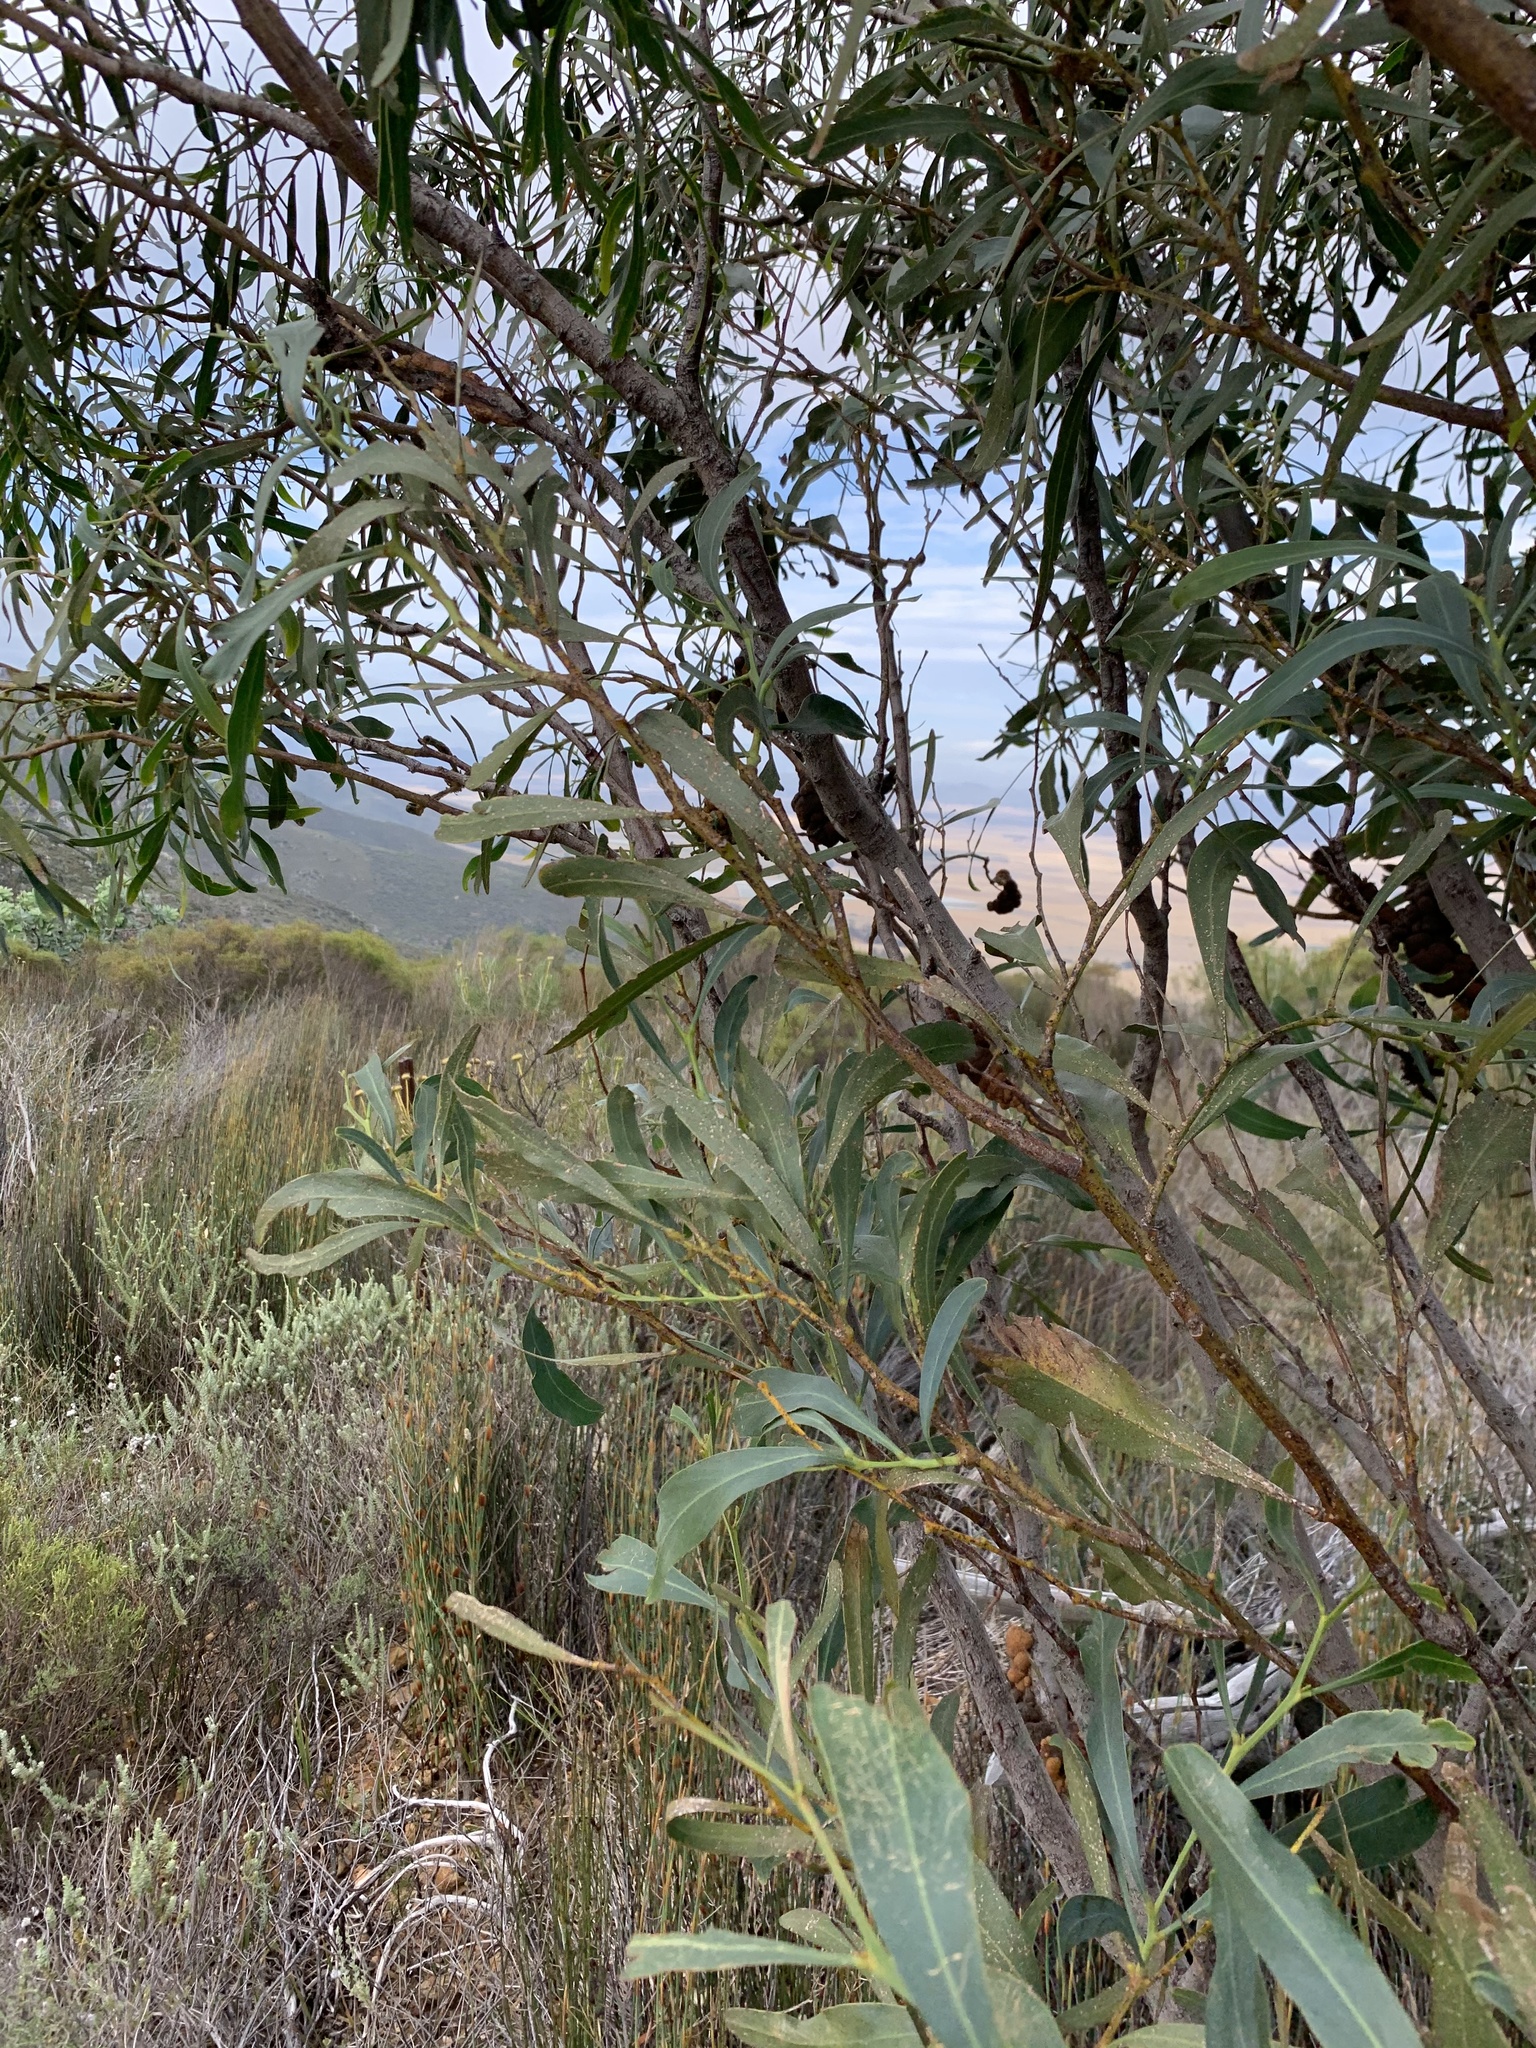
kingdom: Plantae
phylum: Tracheophyta
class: Magnoliopsida
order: Fabales
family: Fabaceae
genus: Acacia
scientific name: Acacia saligna
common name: Orange wattle
